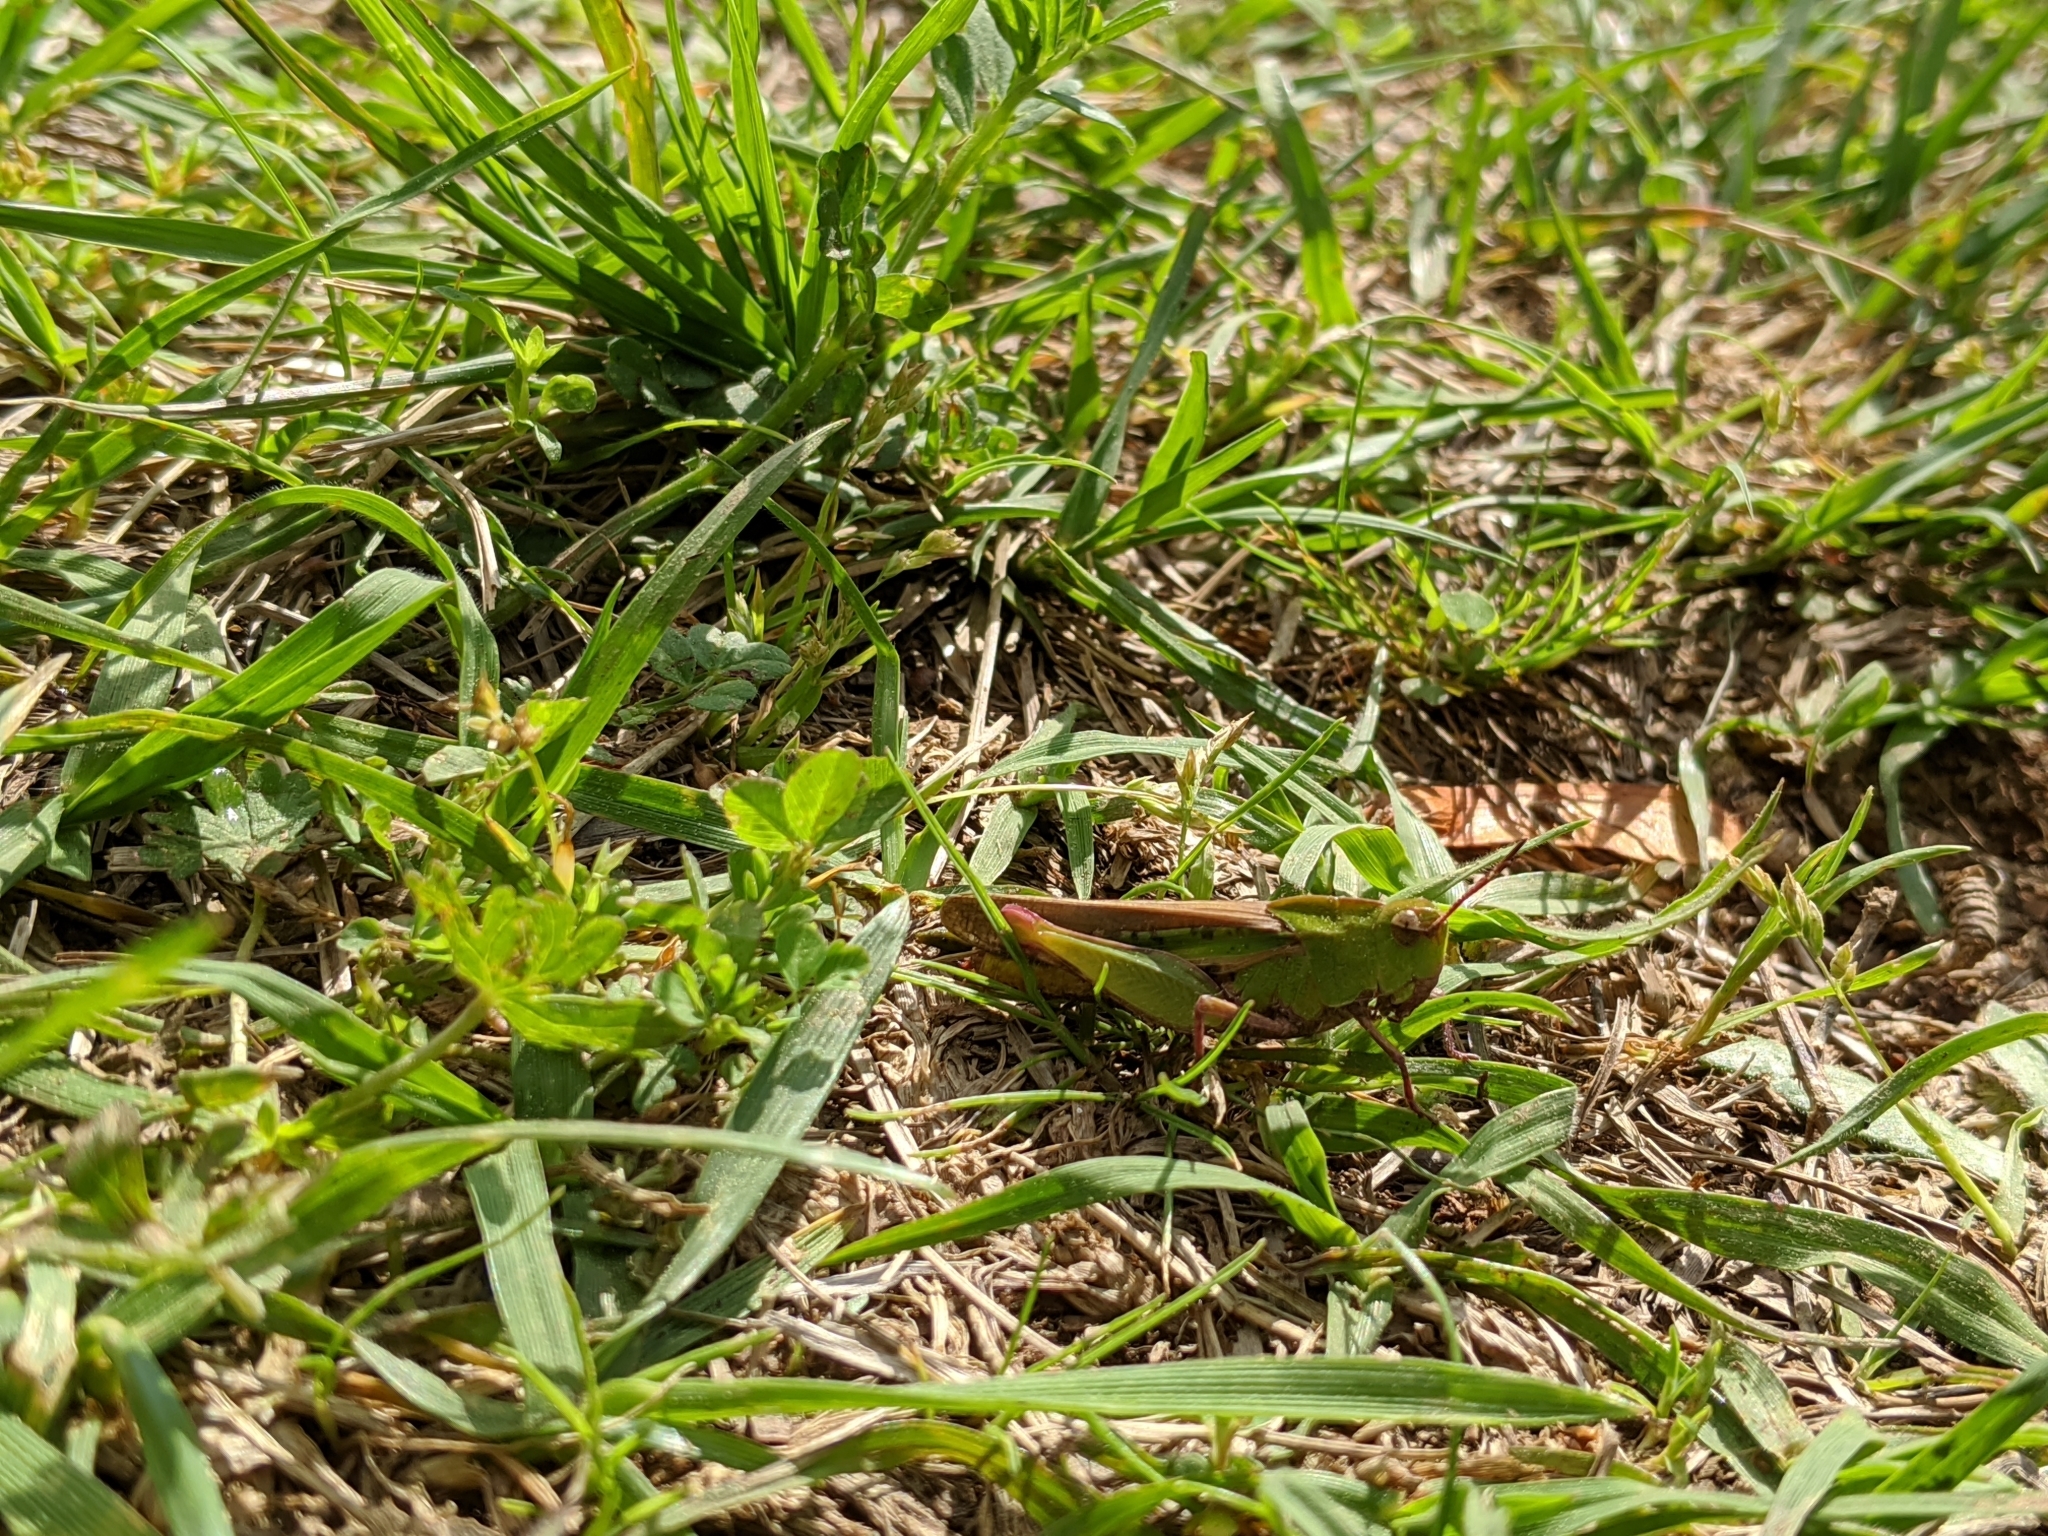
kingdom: Animalia
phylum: Arthropoda
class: Insecta
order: Orthoptera
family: Acrididae
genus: Chortophaga
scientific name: Chortophaga viridifasciata
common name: Green-striped grasshopper
